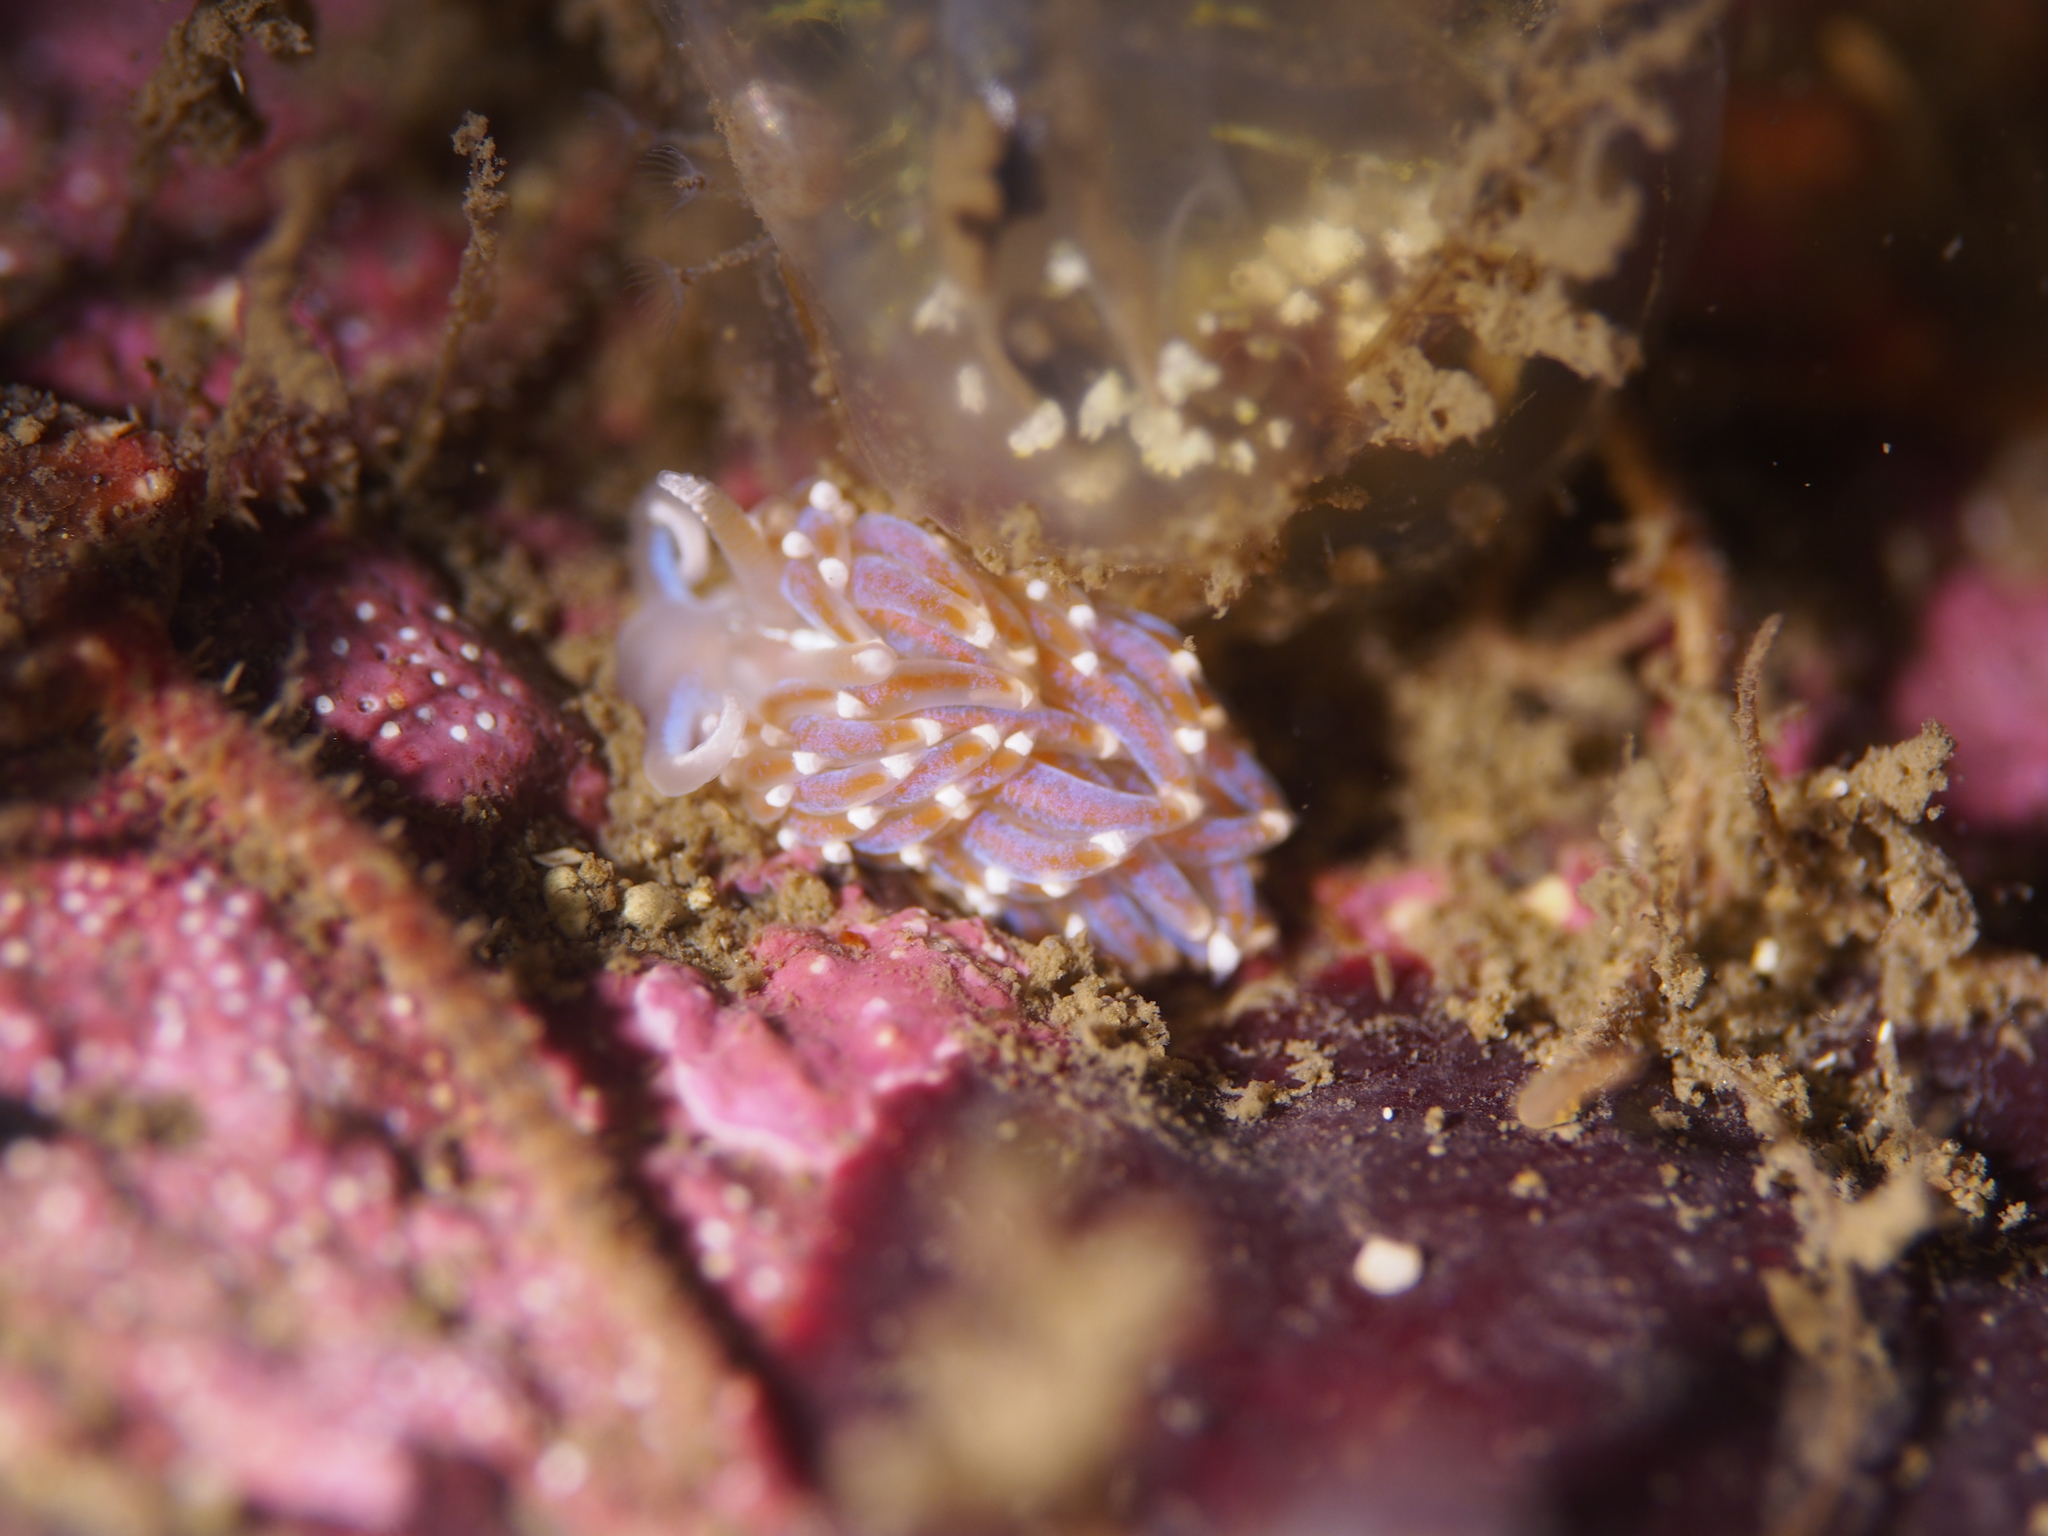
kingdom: Animalia
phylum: Mollusca
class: Gastropoda
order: Nudibranchia
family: Facelinidae
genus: Facelina
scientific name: Facelina auriculata
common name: Slender facelina
